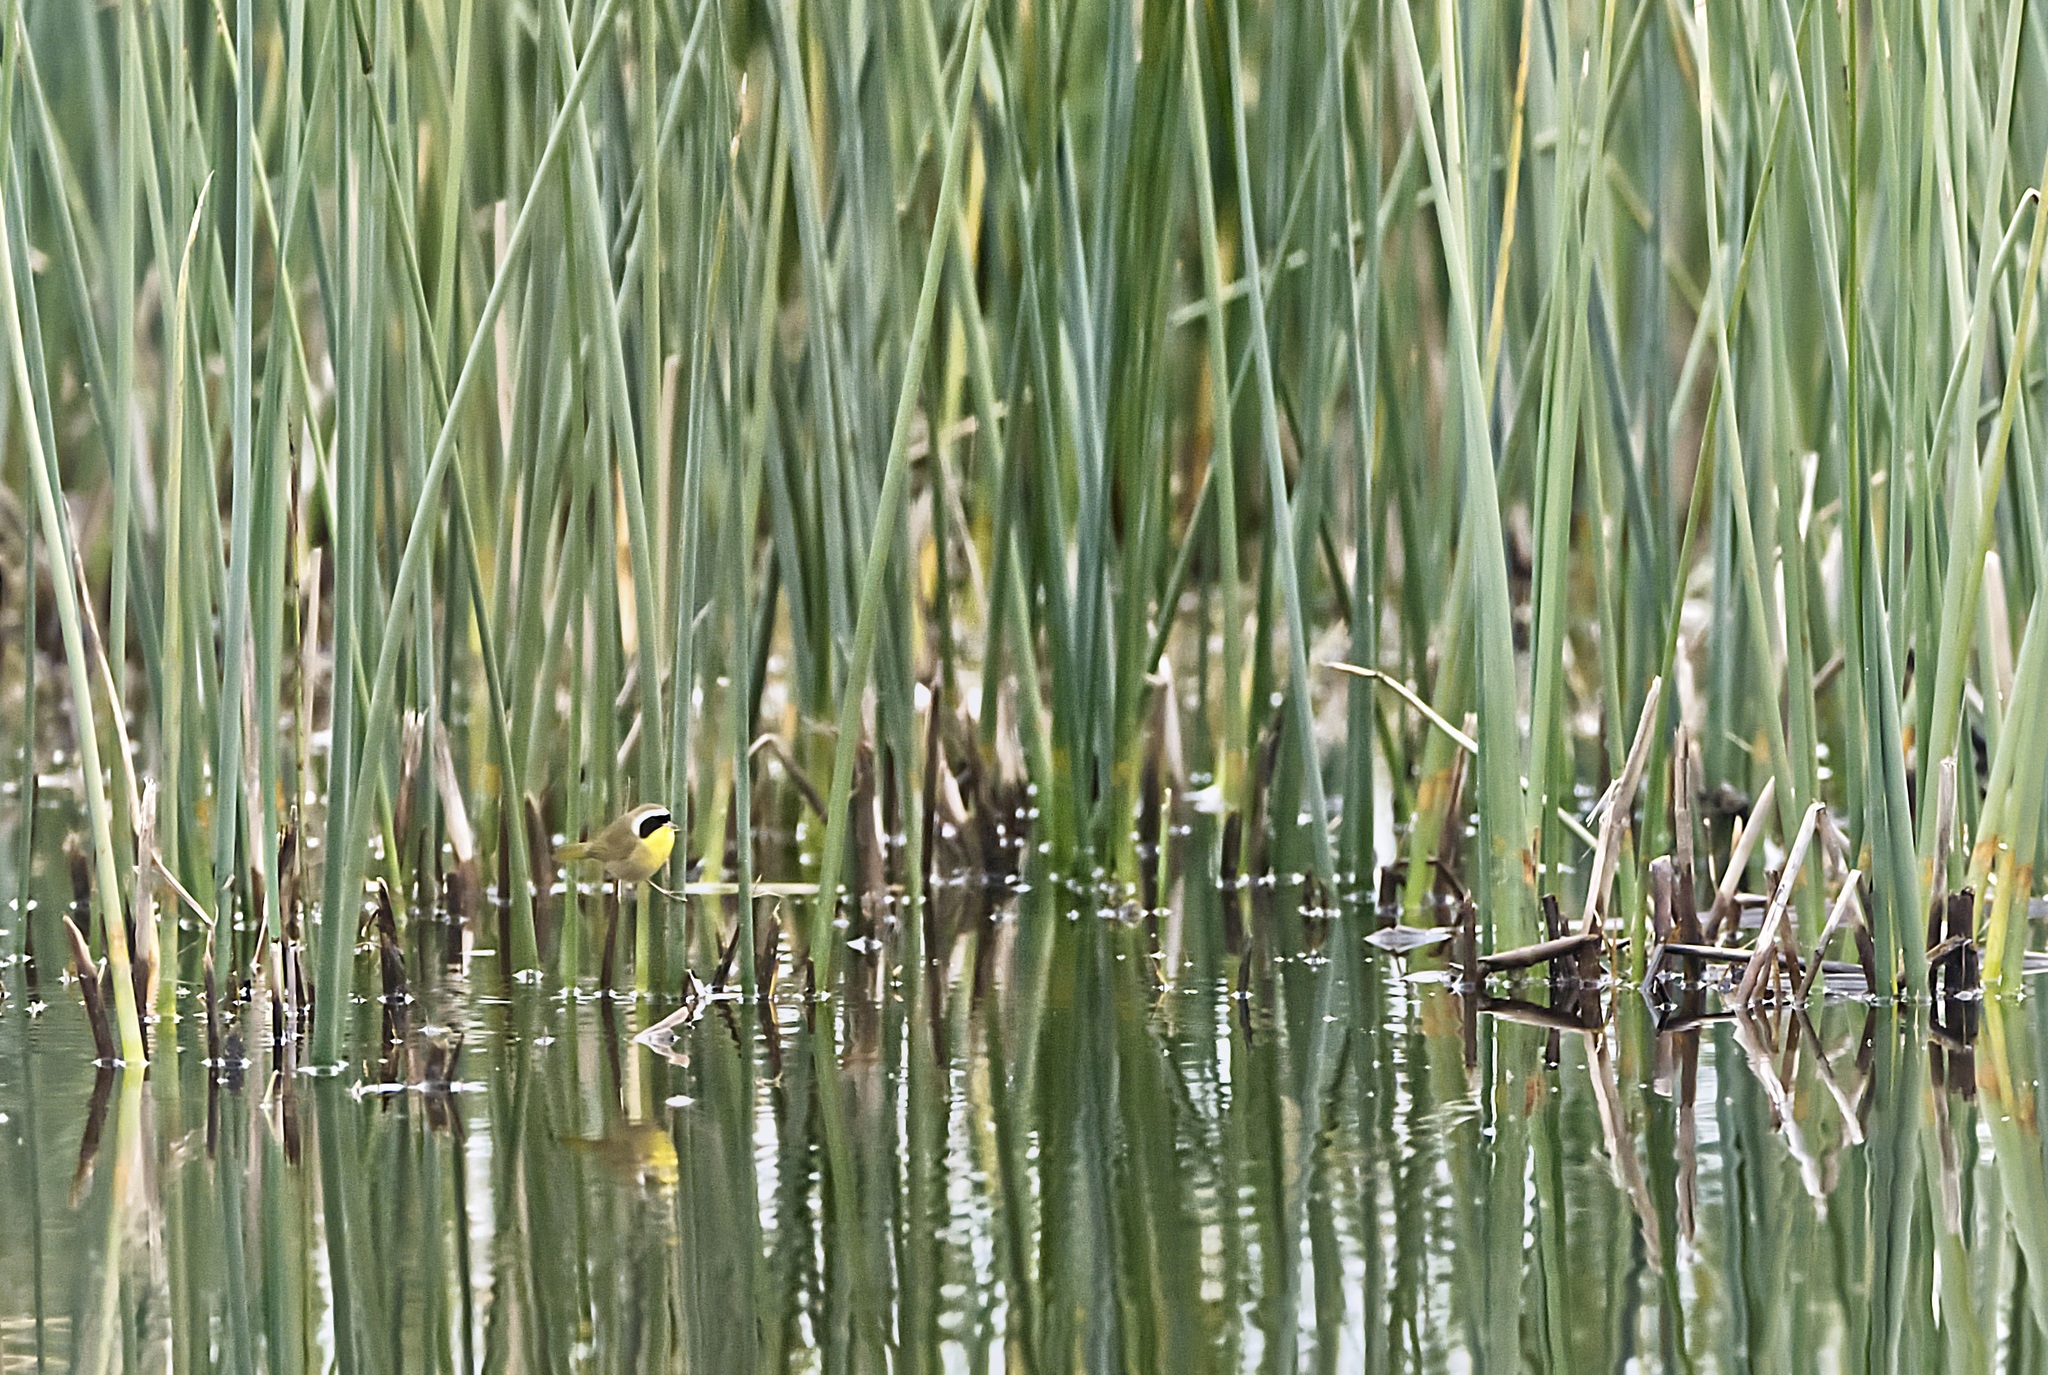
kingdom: Animalia
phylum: Chordata
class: Aves
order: Passeriformes
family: Parulidae
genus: Geothlypis
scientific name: Geothlypis trichas
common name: Common yellowthroat
